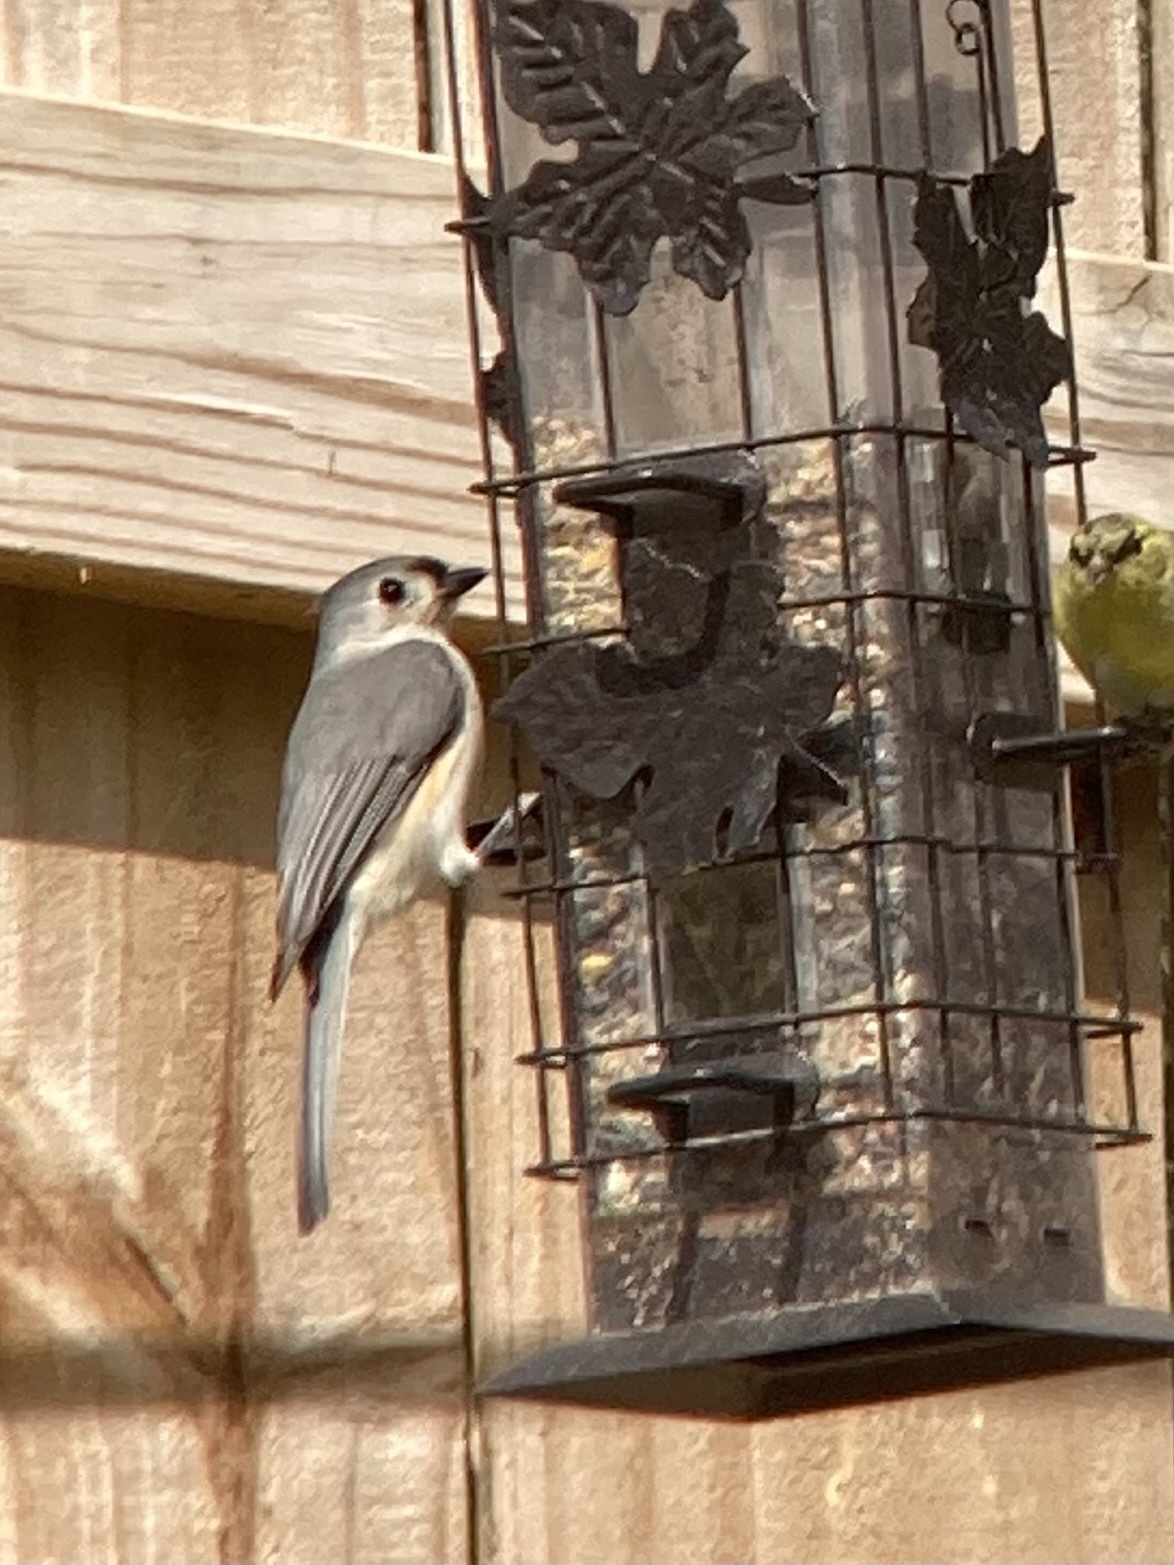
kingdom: Animalia
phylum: Chordata
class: Aves
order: Passeriformes
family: Paridae
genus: Baeolophus
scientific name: Baeolophus bicolor
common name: Tufted titmouse
